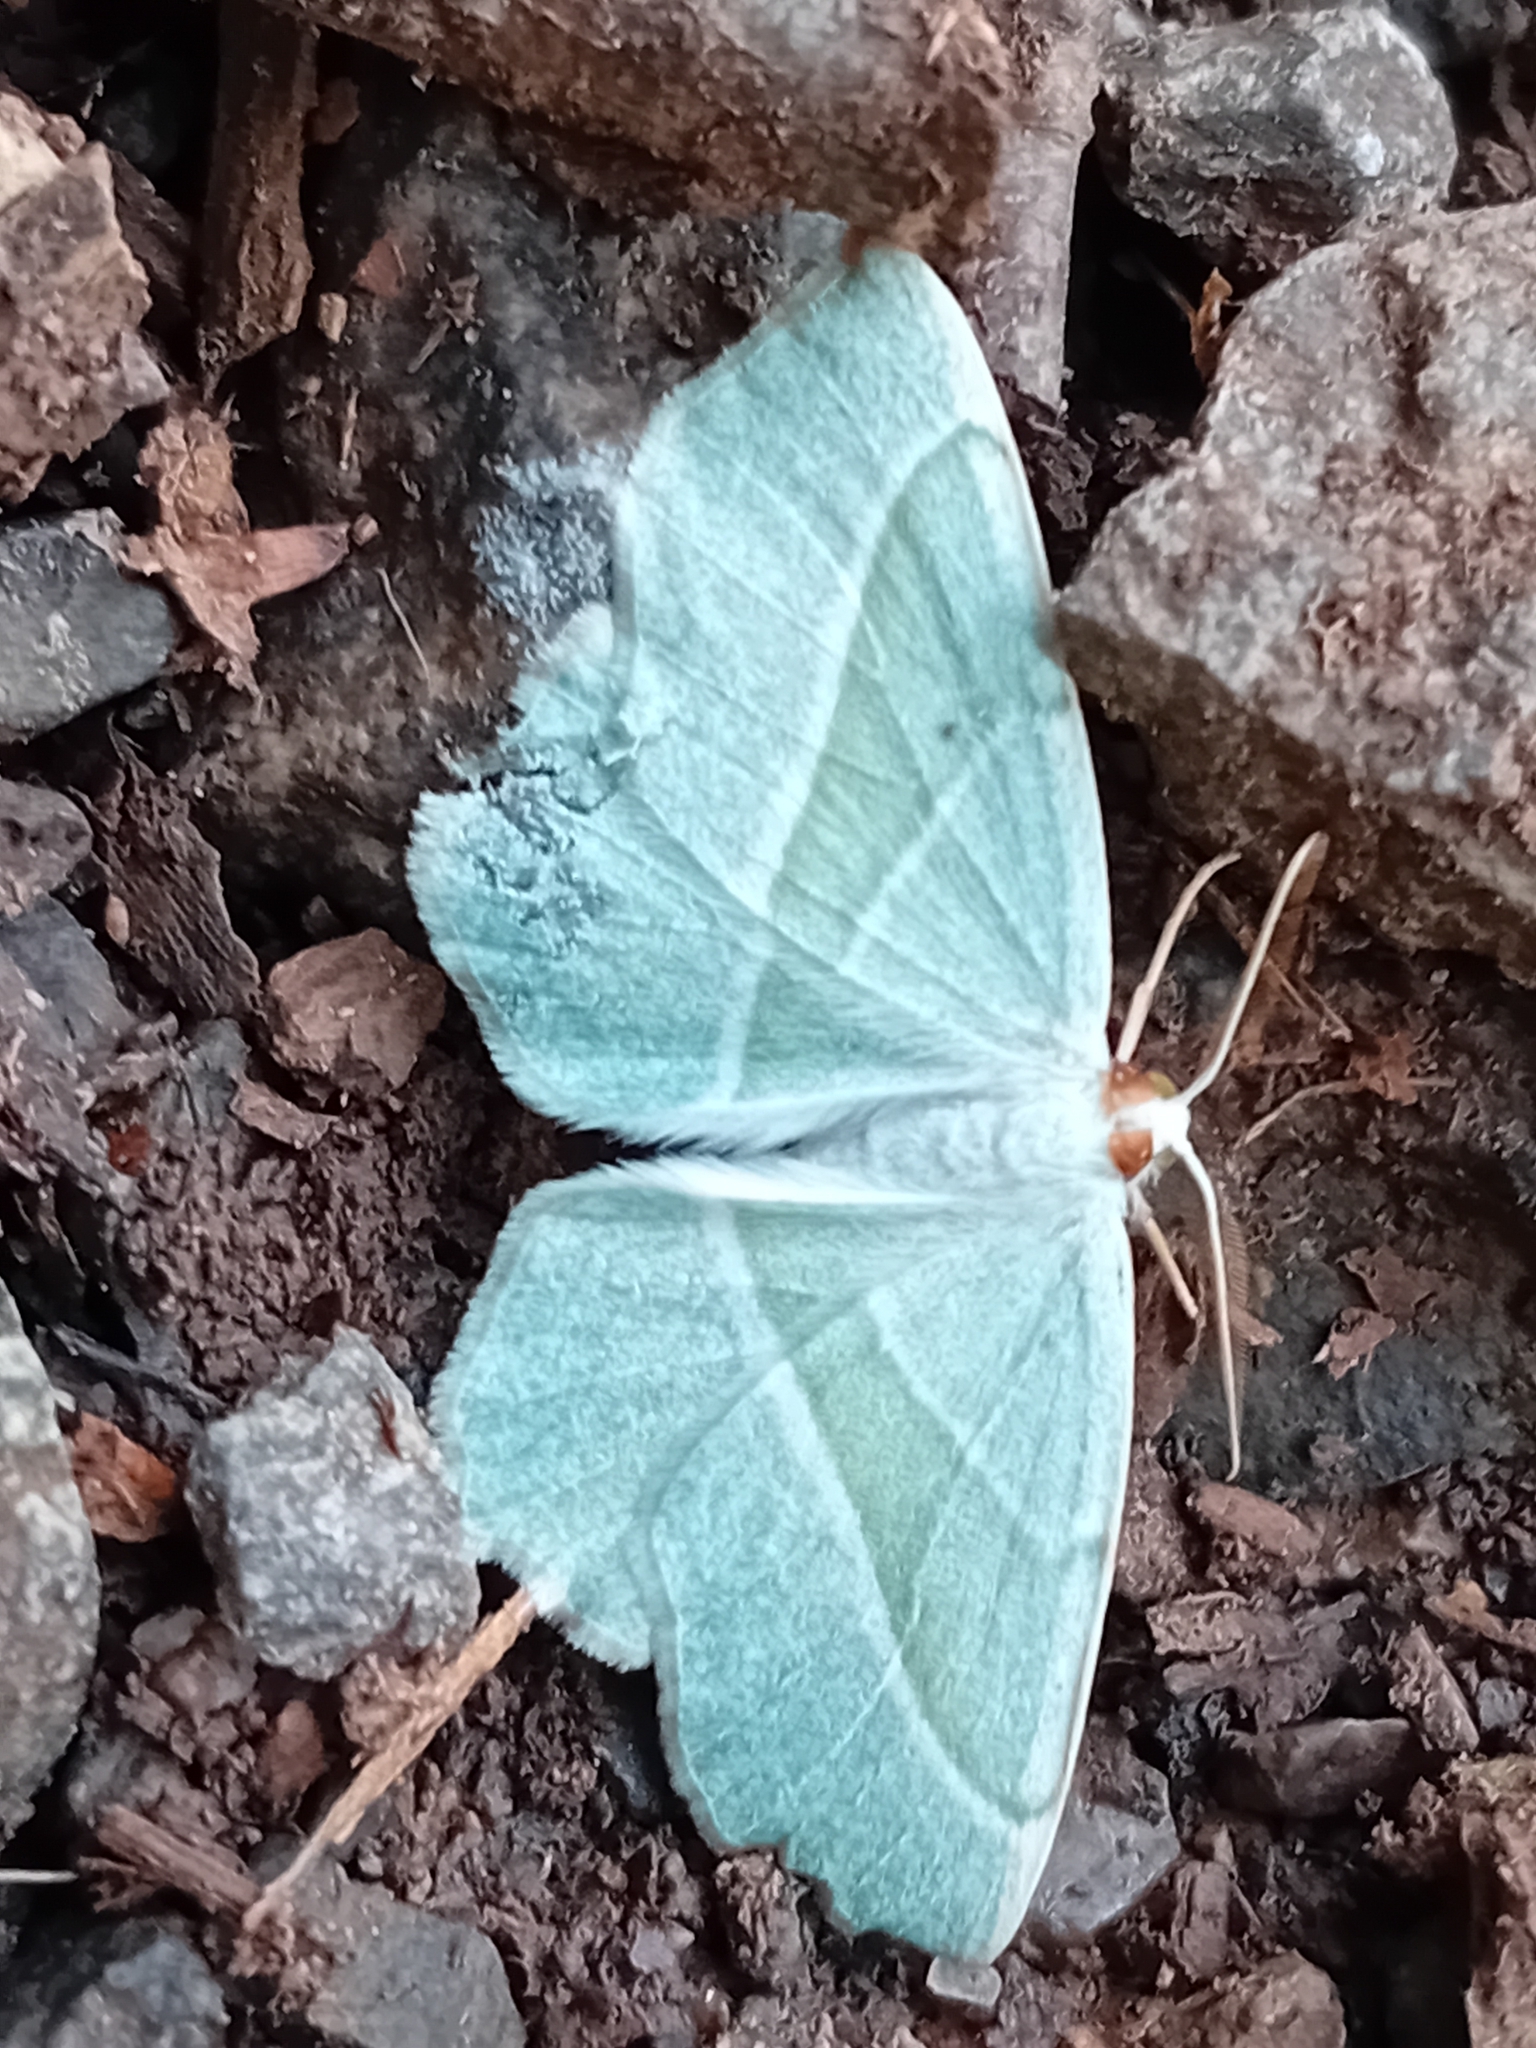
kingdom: Animalia
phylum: Arthropoda
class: Insecta
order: Lepidoptera
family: Geometridae
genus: Campaea
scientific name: Campaea margaritaria
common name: Light emerald
